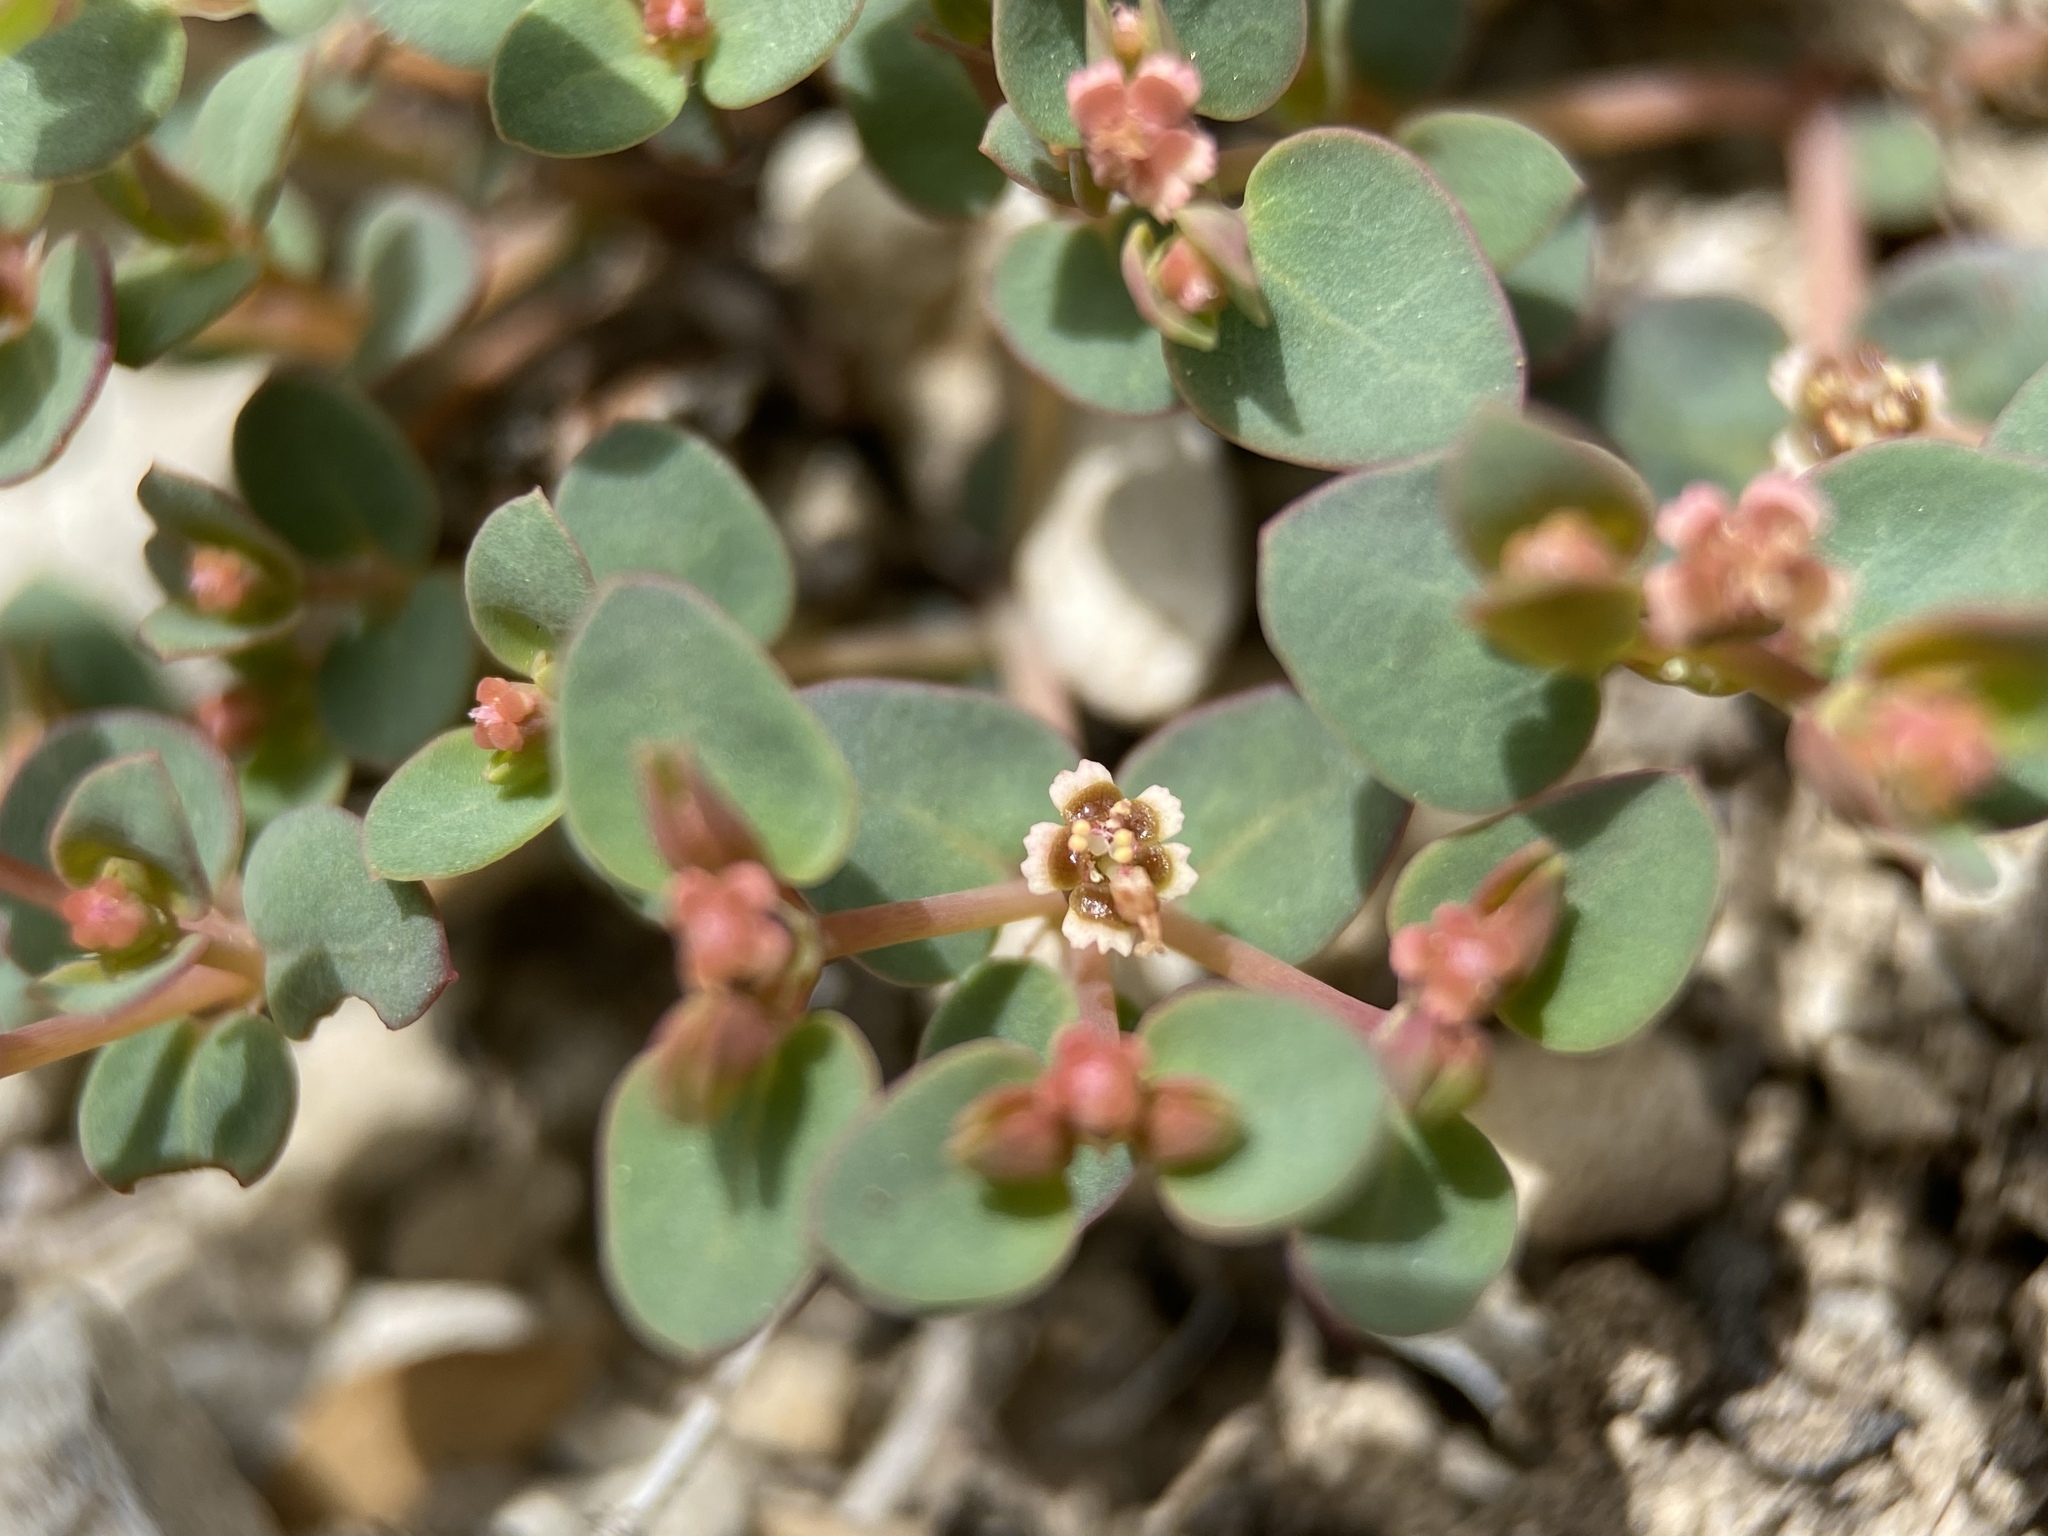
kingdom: Plantae
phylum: Tracheophyta
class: Magnoliopsida
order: Malpighiales
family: Euphorbiaceae
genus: Euphorbia
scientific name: Euphorbia fendleri
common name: Fendler's euphorbia
